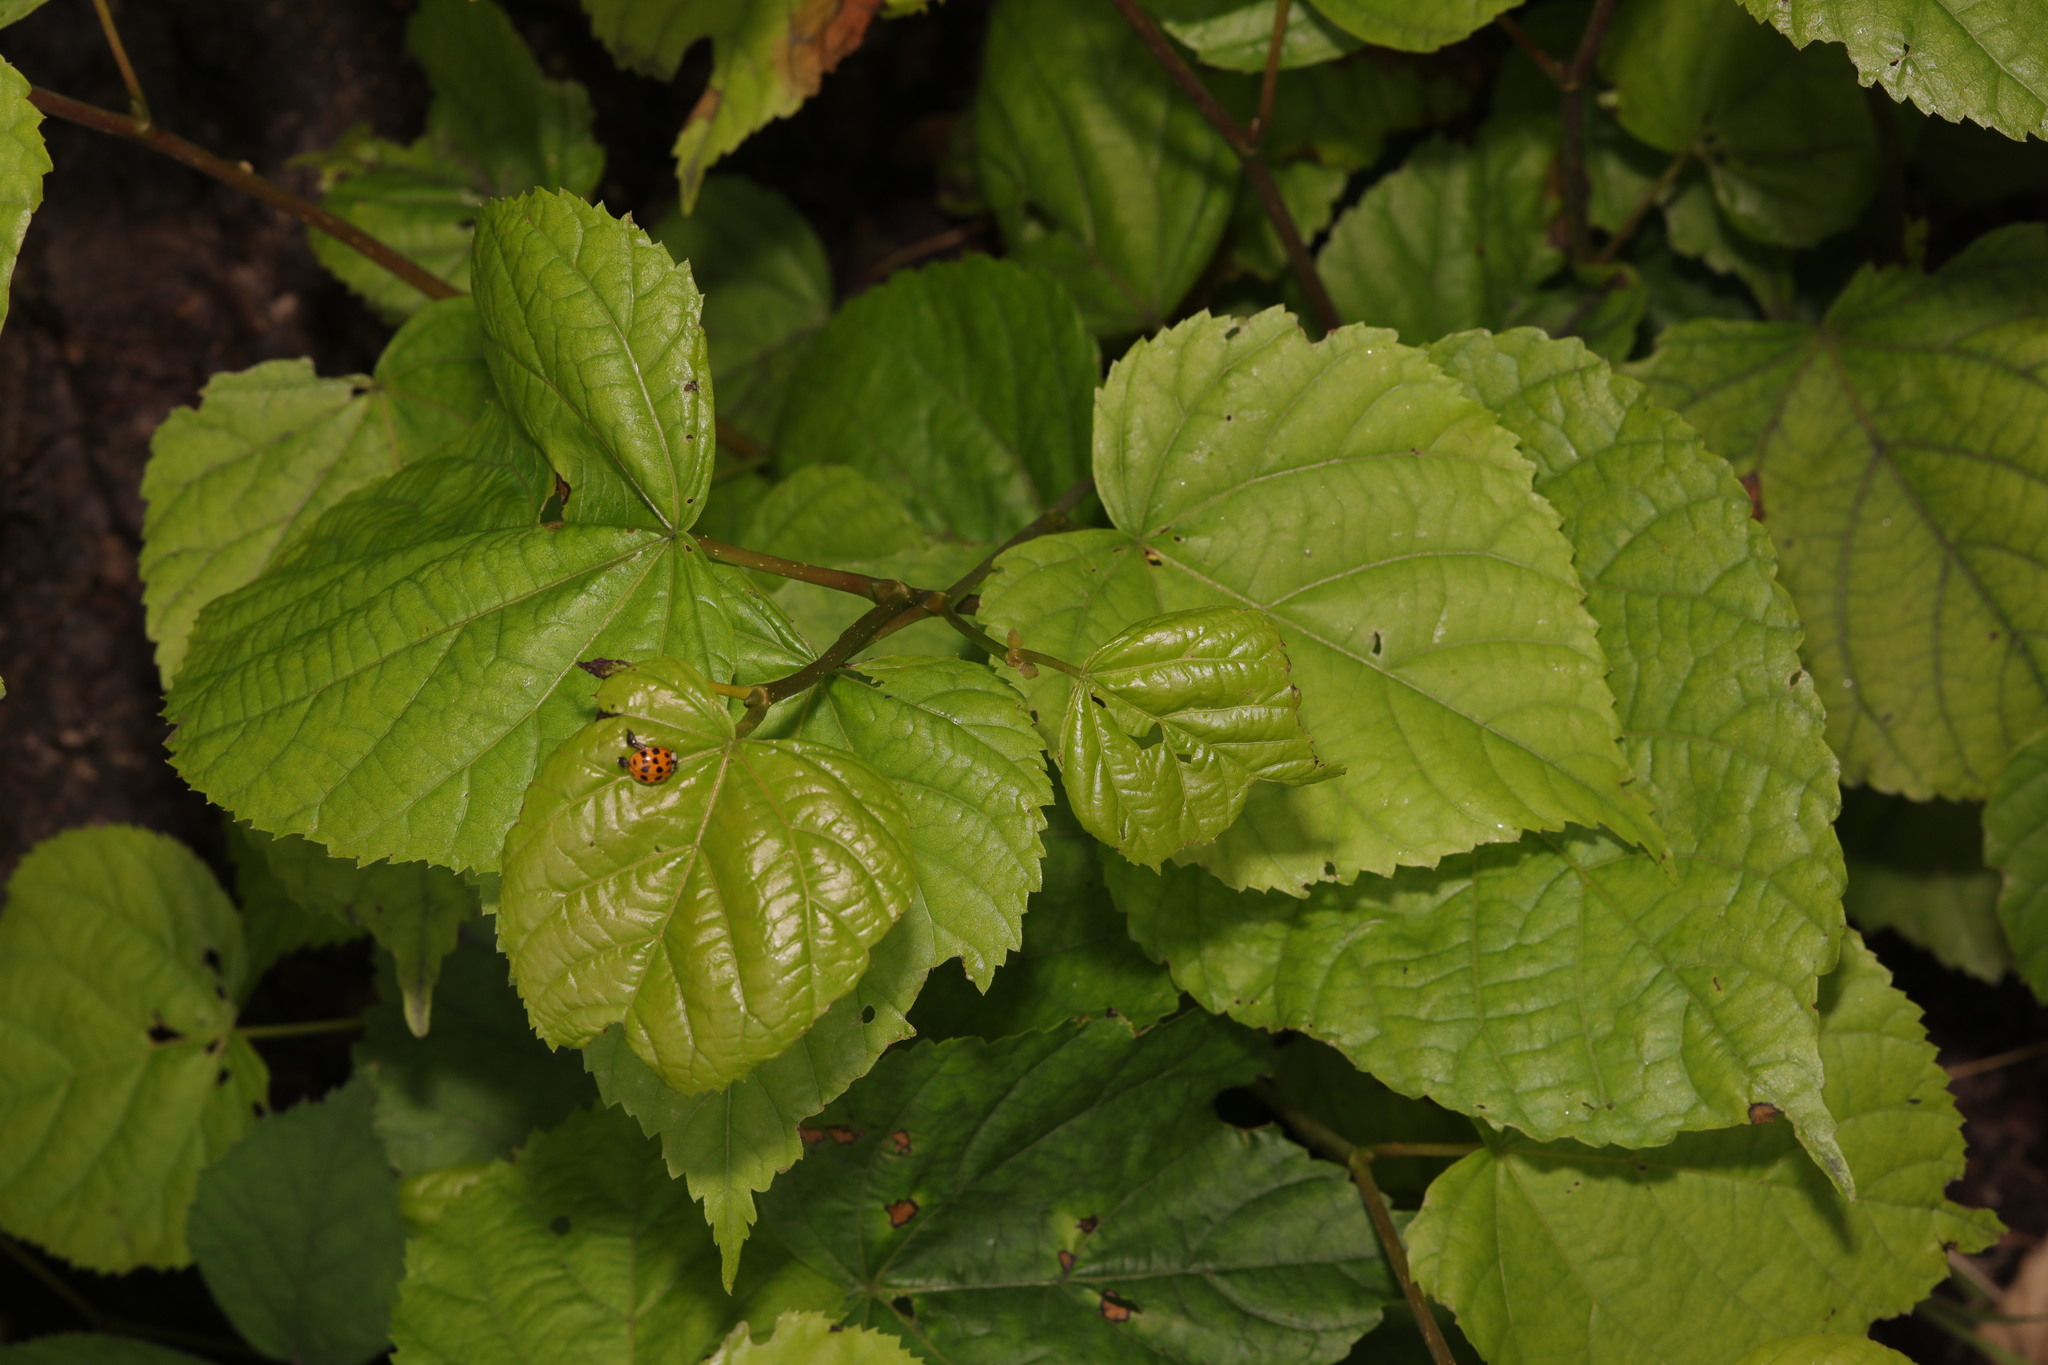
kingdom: Plantae
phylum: Tracheophyta
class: Magnoliopsida
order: Malvales
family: Malvaceae
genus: Tilia
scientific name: Tilia europaea
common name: European linden
